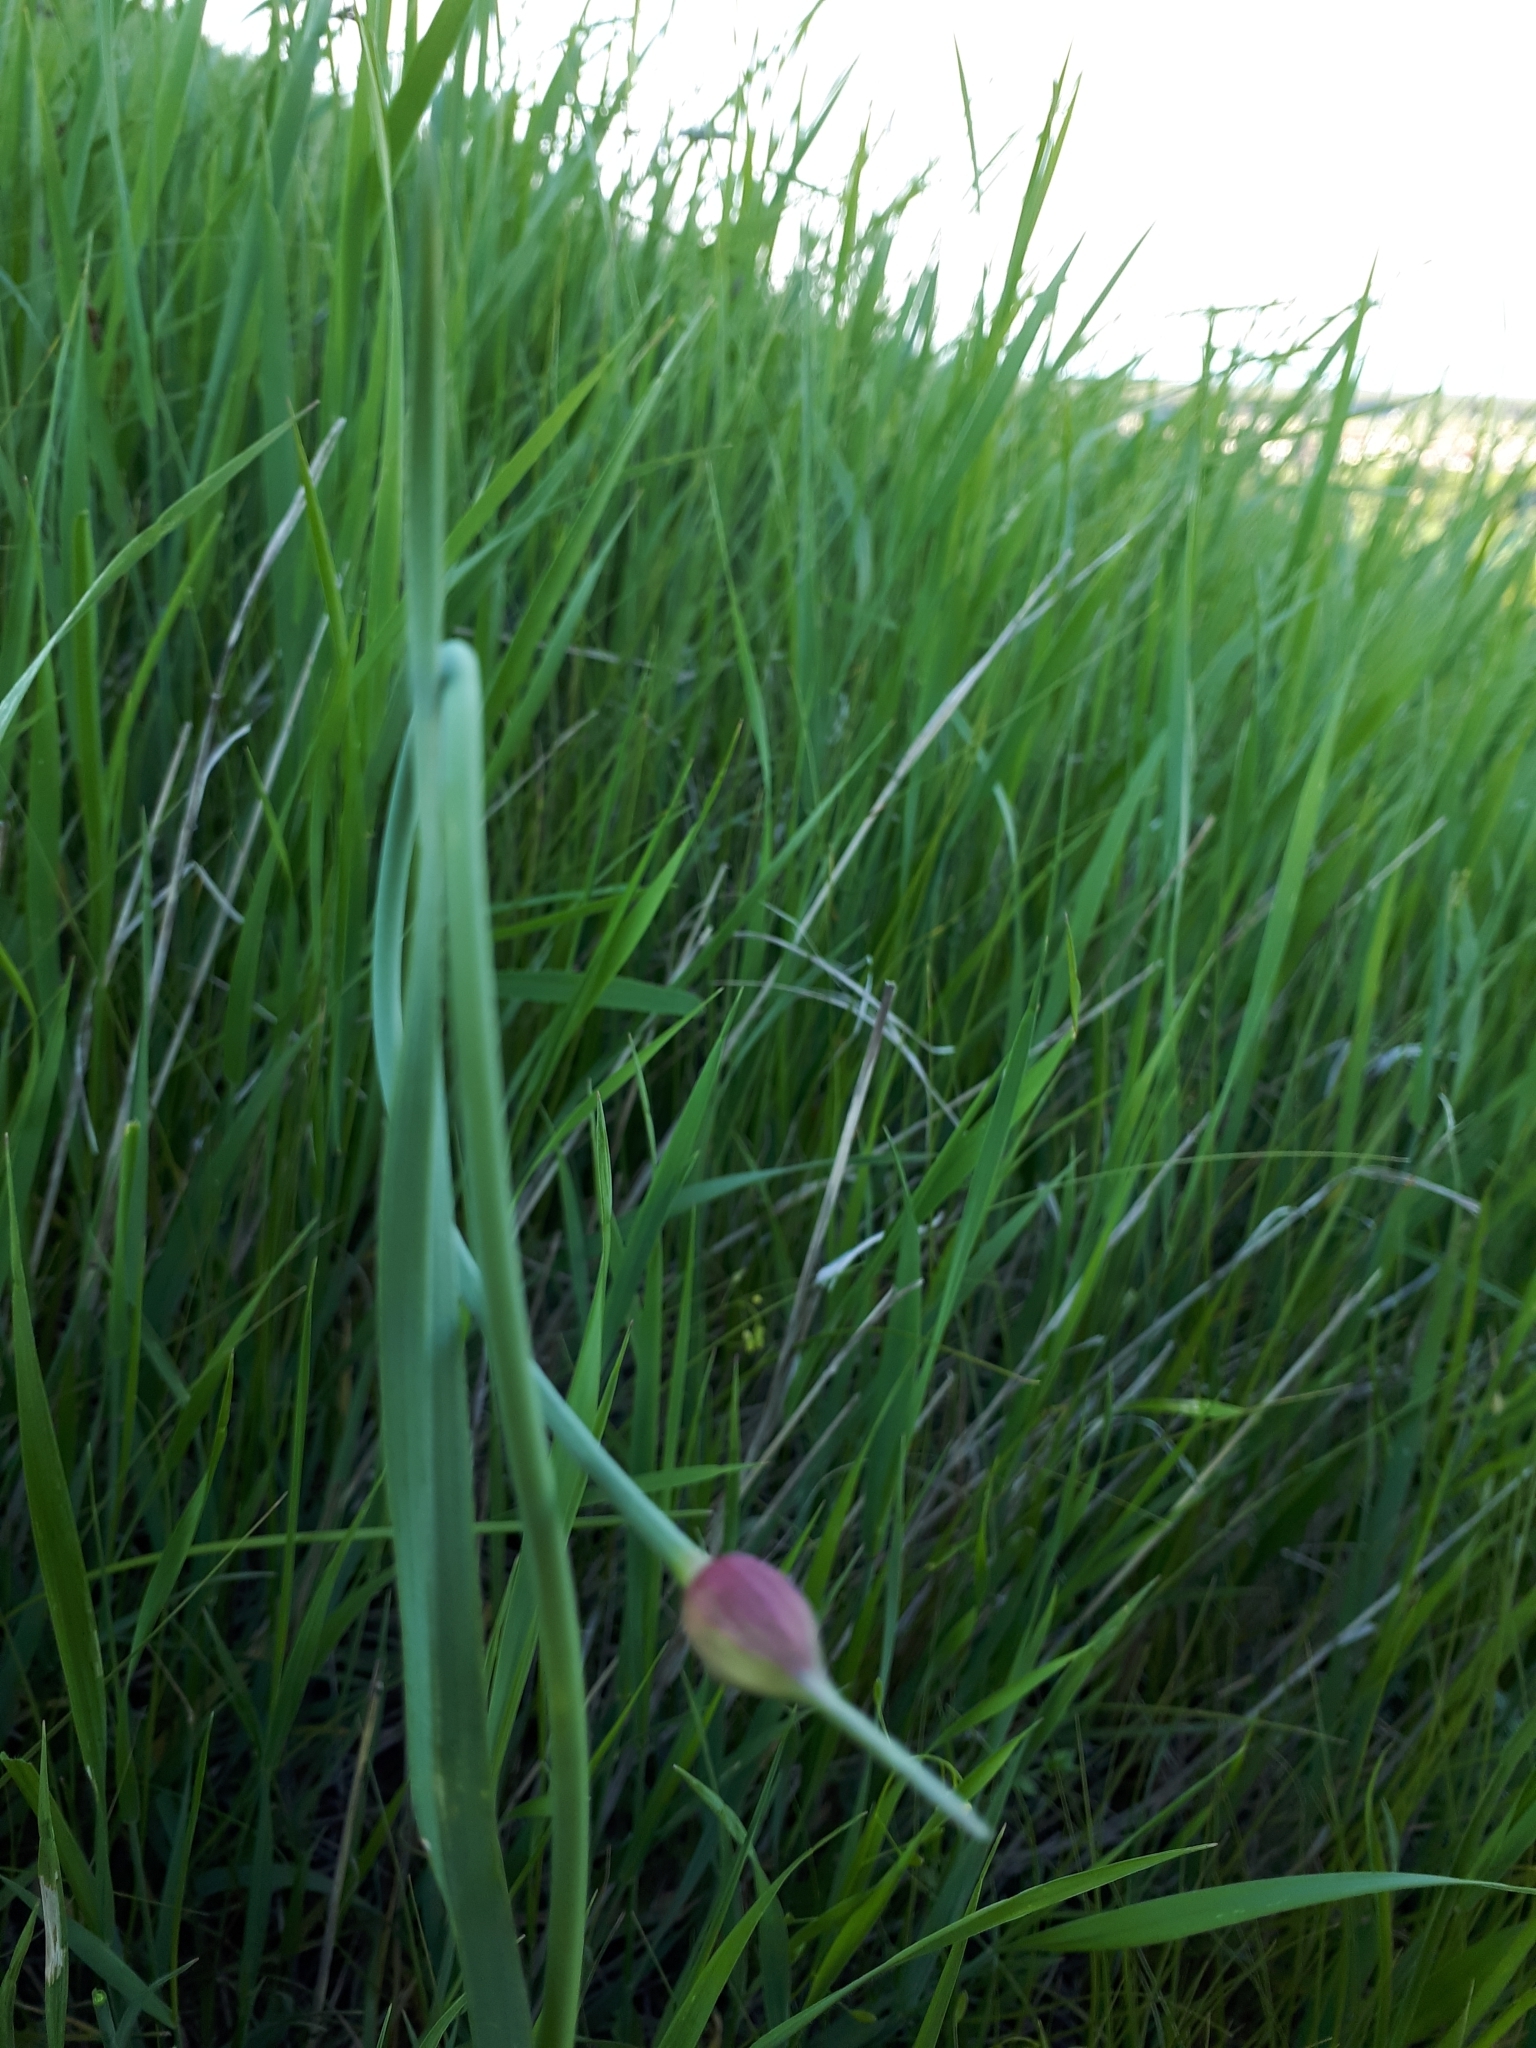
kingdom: Plantae
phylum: Tracheophyta
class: Liliopsida
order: Asparagales
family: Amaryllidaceae
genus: Allium
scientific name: Allium rotundum
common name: Sand leek
